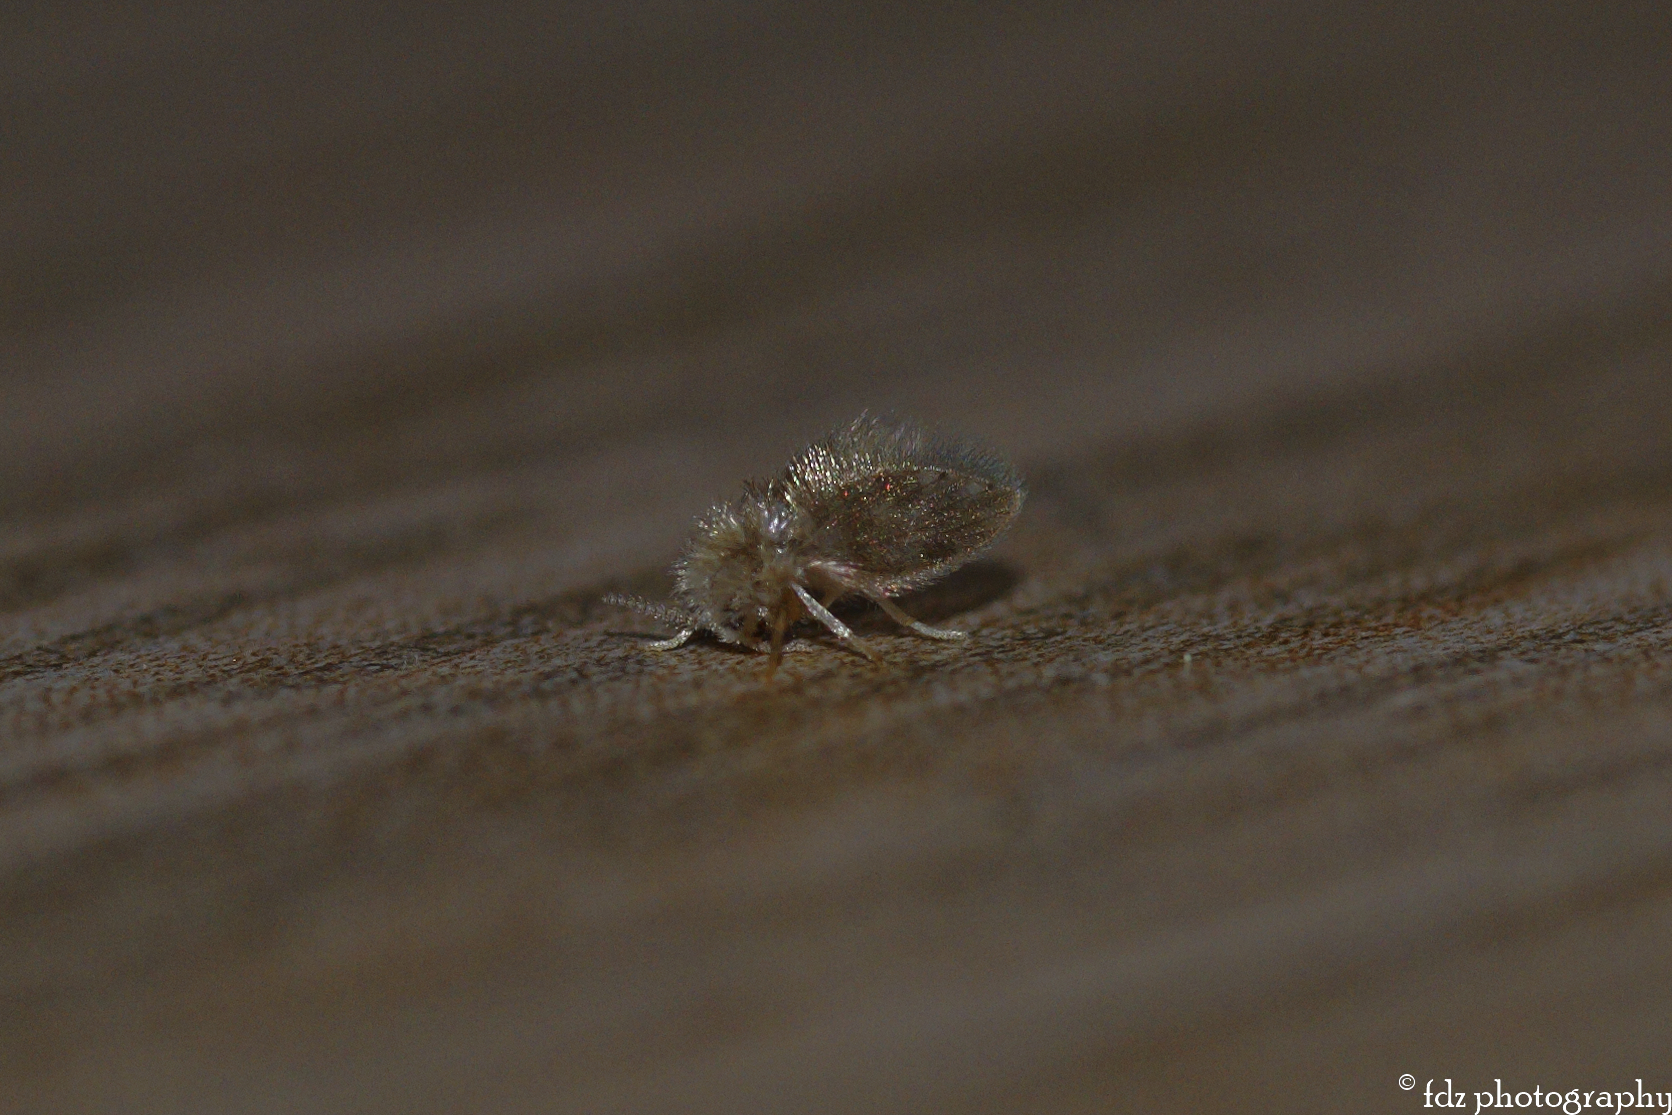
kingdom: Animalia
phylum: Arthropoda
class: Insecta
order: Diptera
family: Psychodidae
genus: Psychoda
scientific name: Psychoda alternata
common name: Moth fly
